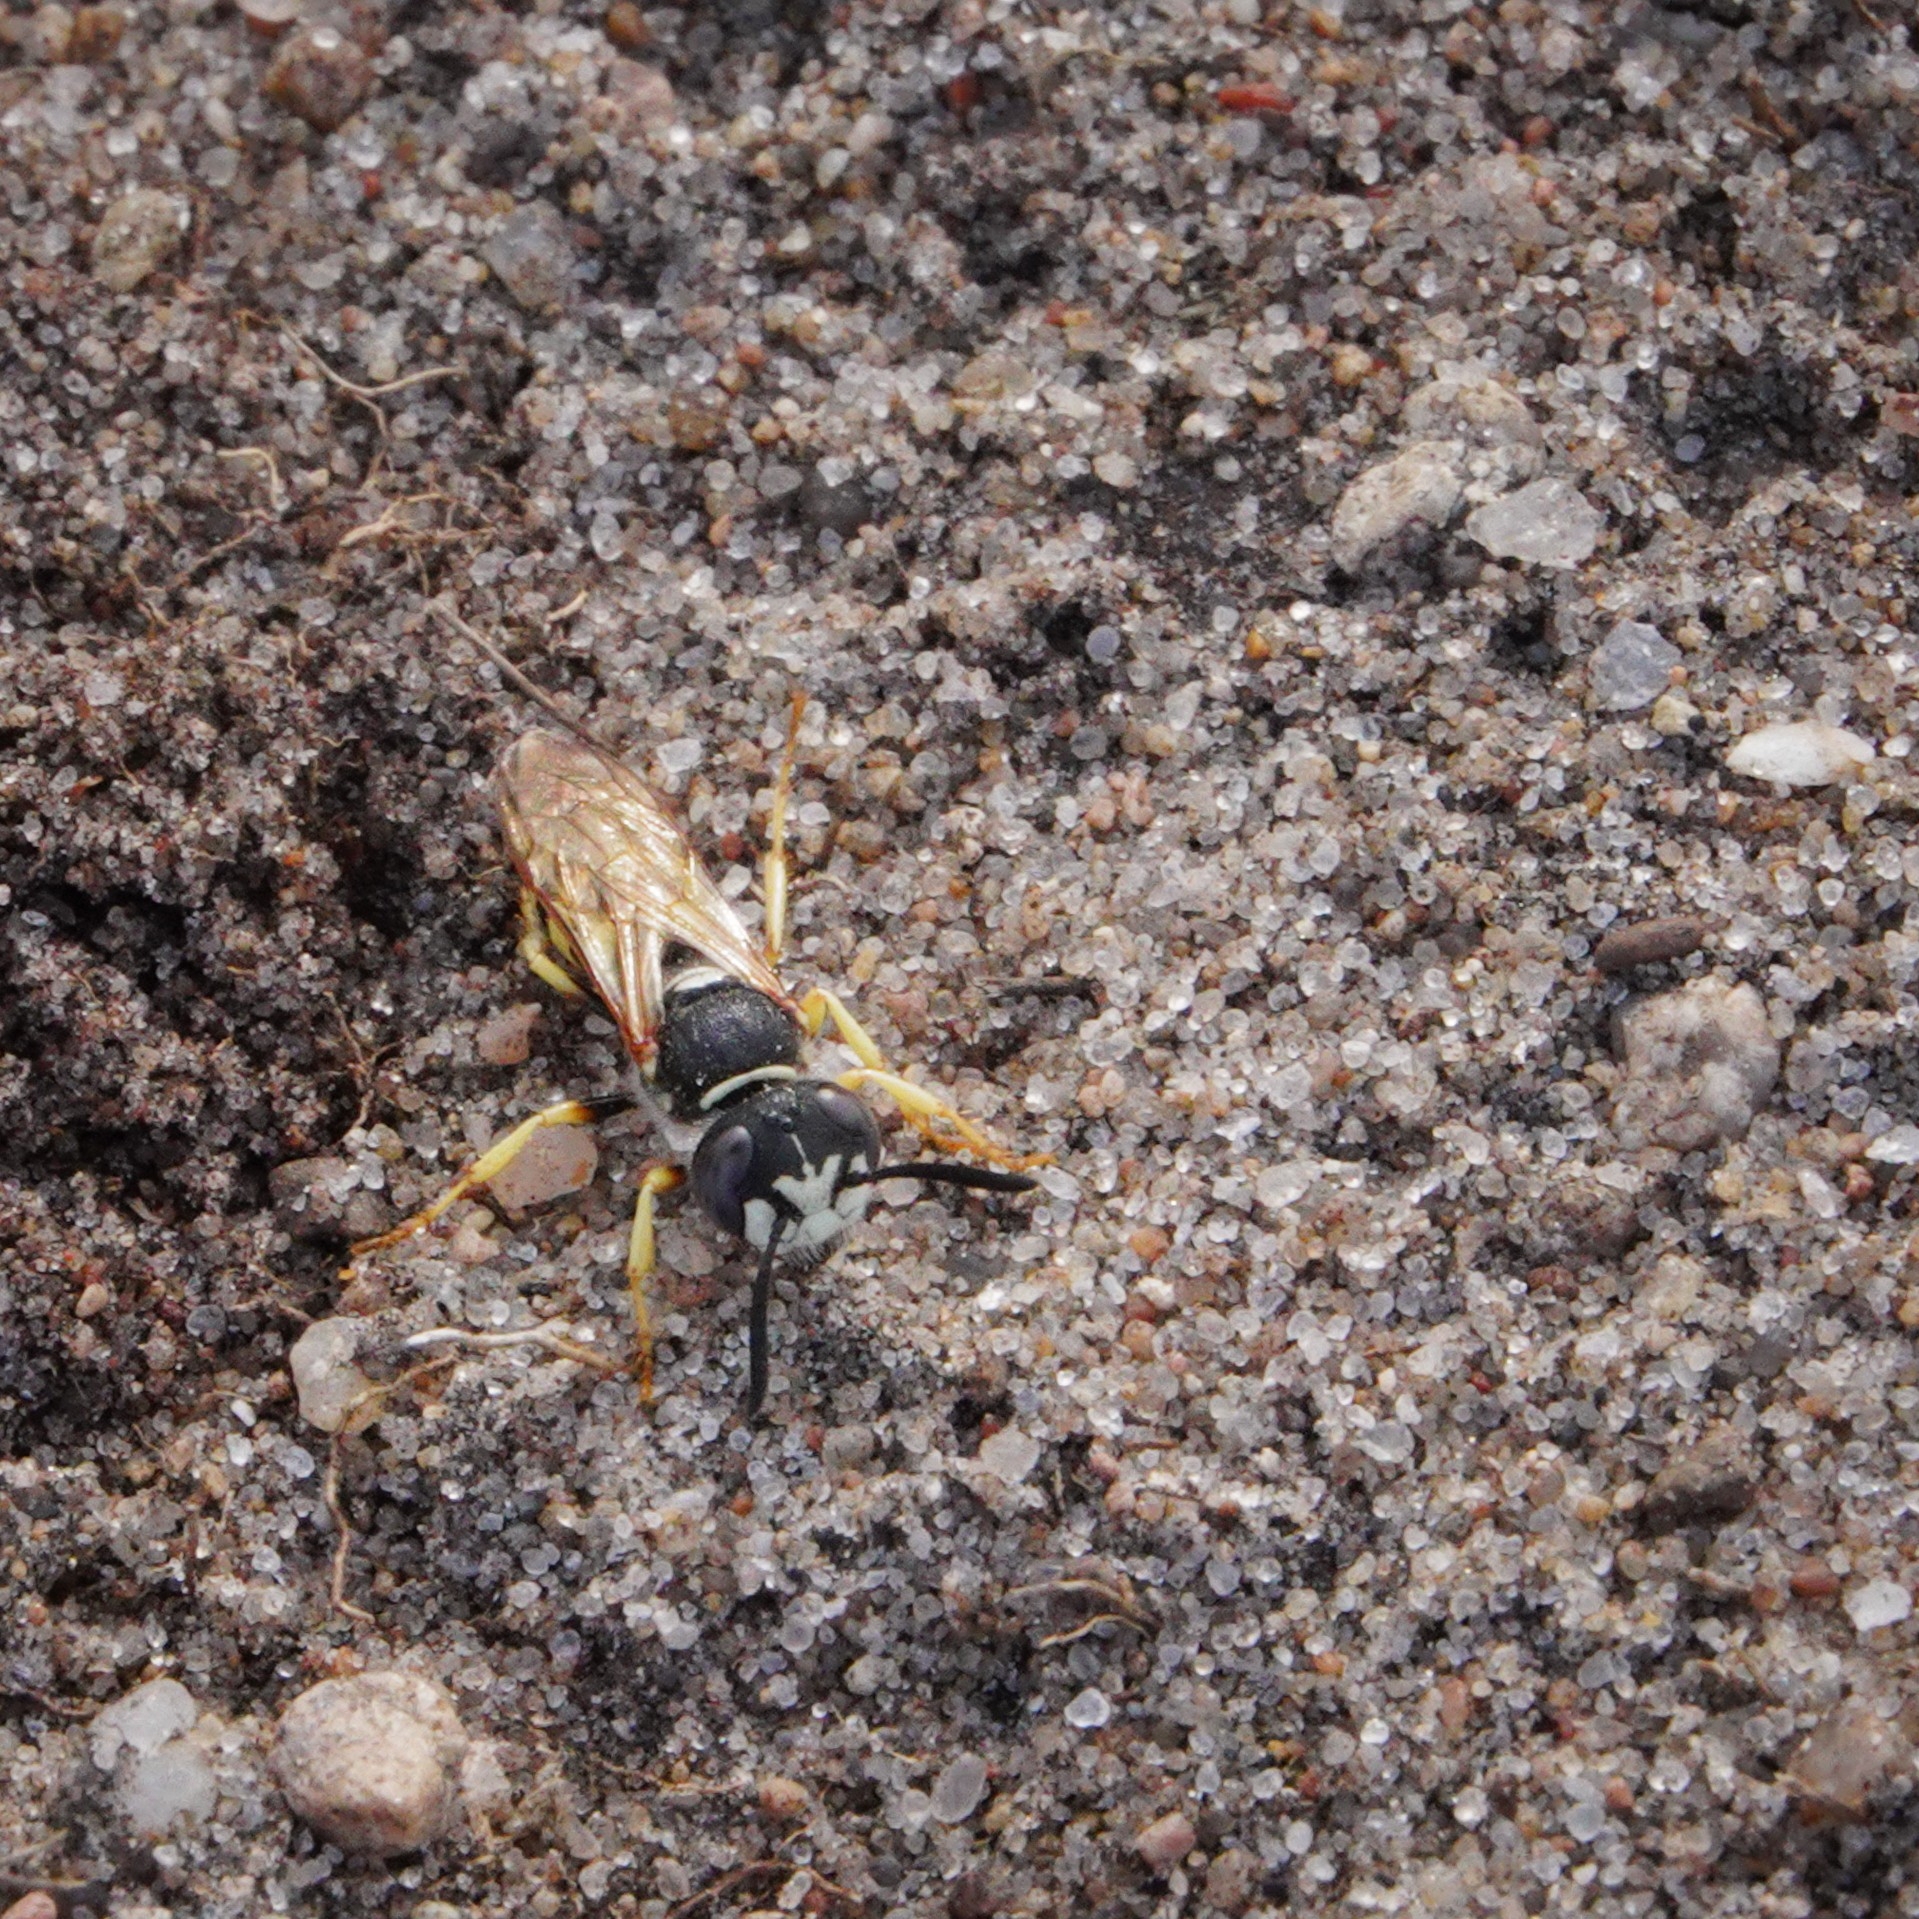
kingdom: Animalia
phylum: Arthropoda
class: Insecta
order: Hymenoptera
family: Crabronidae
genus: Philanthus
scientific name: Philanthus triangulum
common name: Bee wolf
